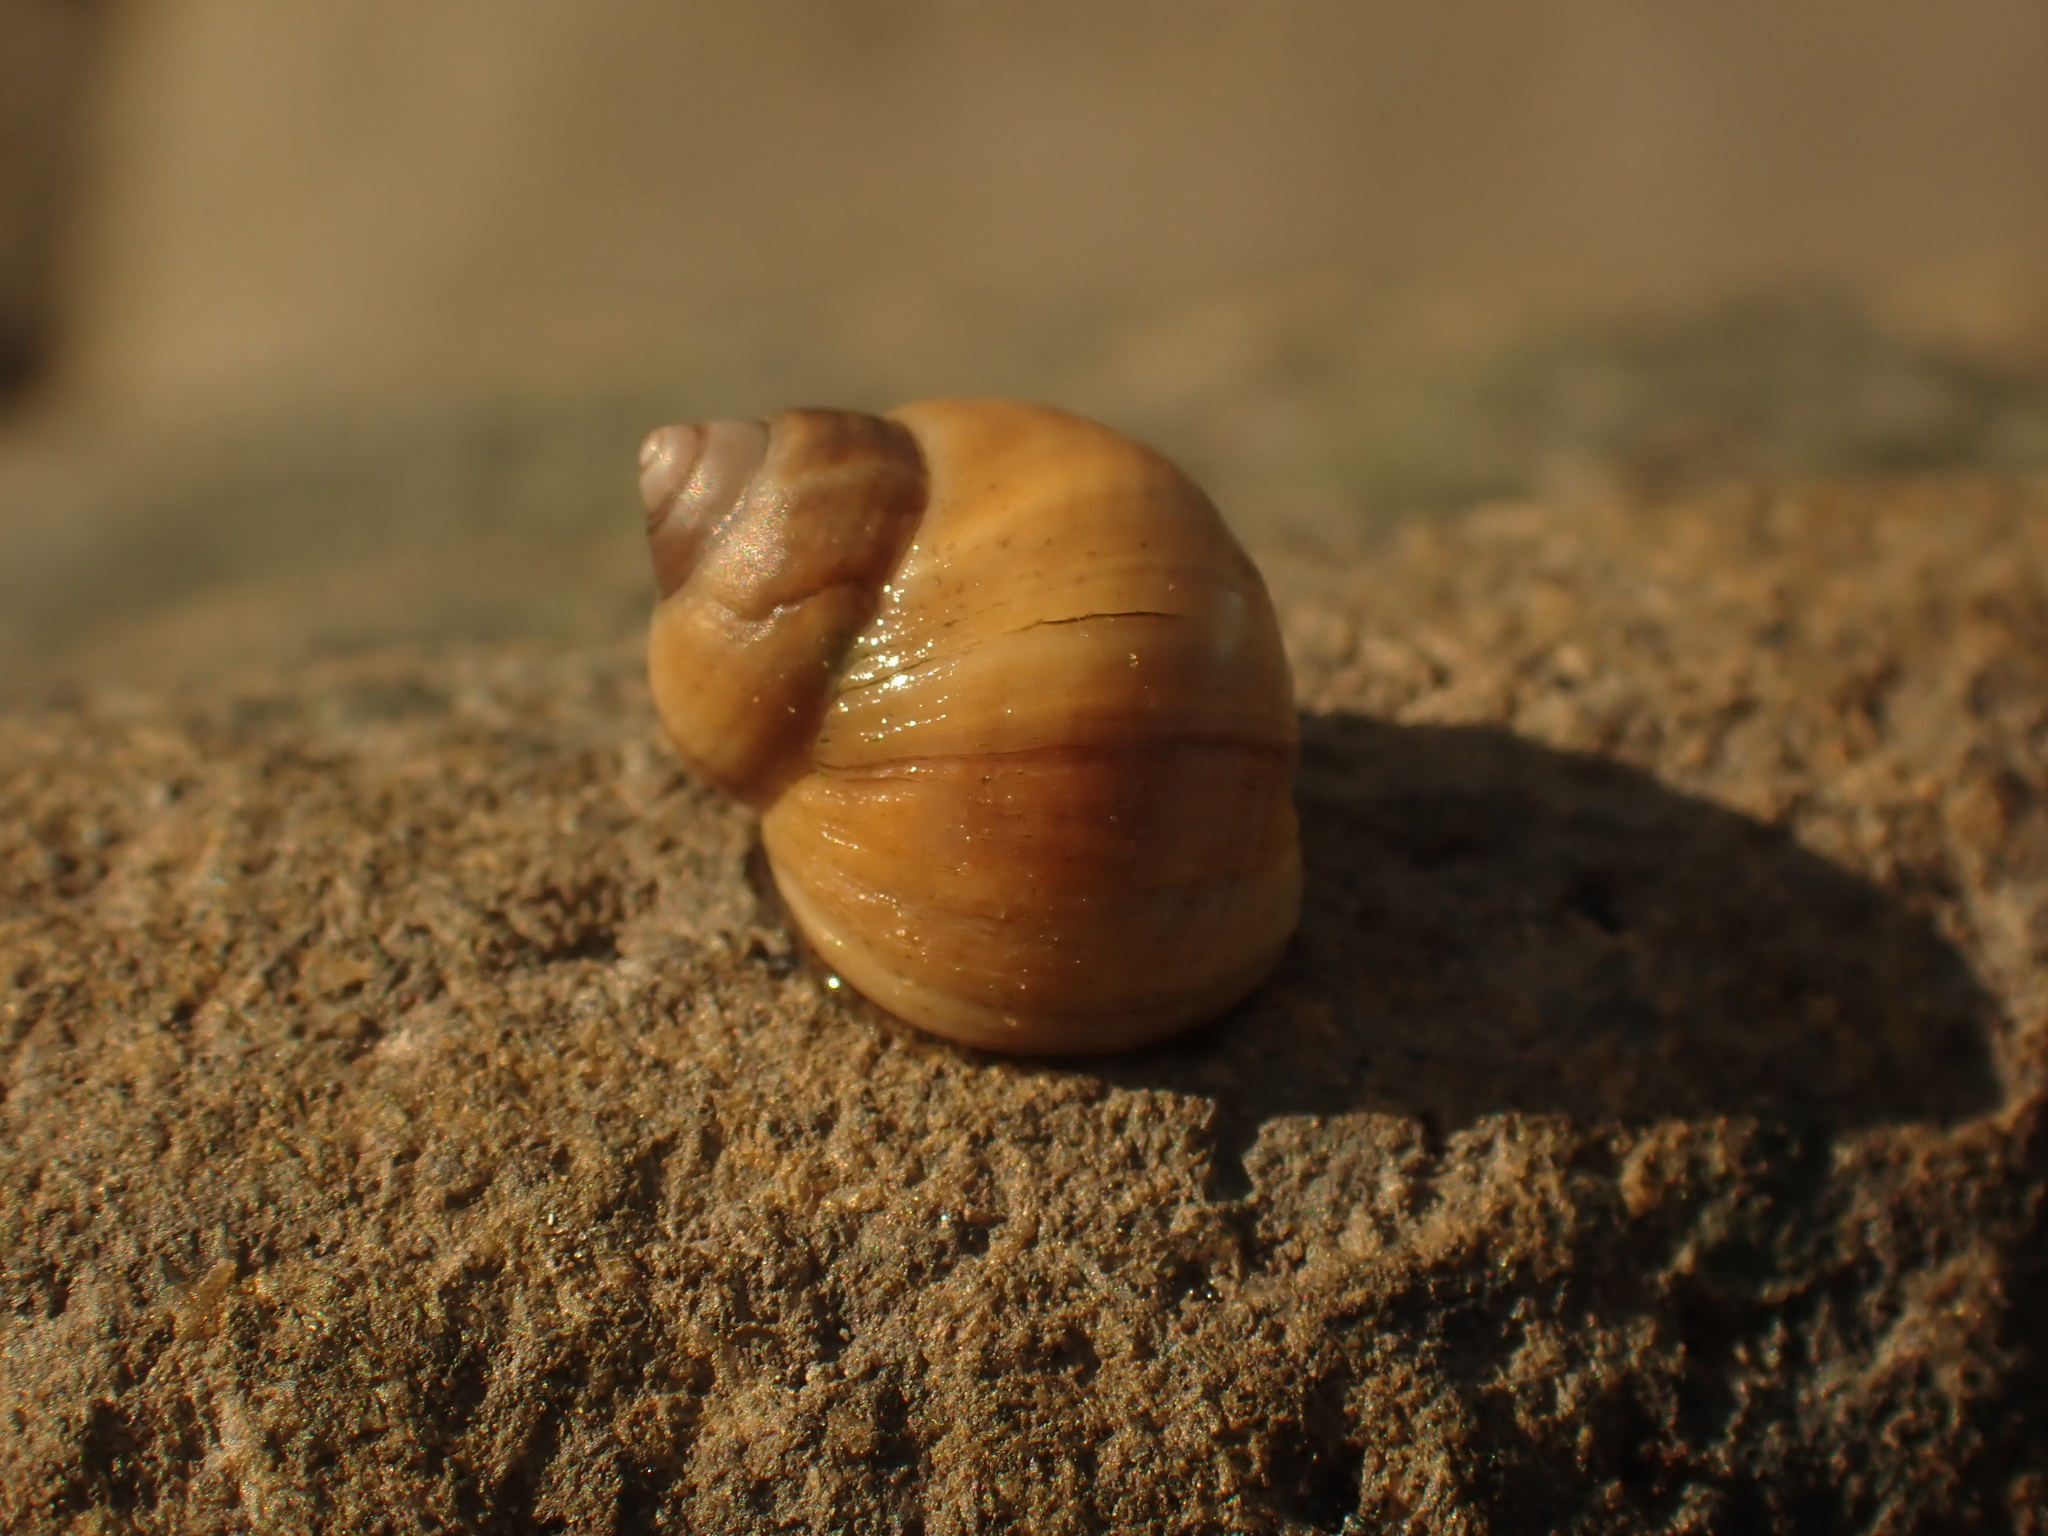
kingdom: Animalia
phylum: Mollusca
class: Gastropoda
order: Littorinimorpha
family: Littorinidae
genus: Littorina
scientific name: Littorina saxatilis
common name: Black-lined periwinkle
